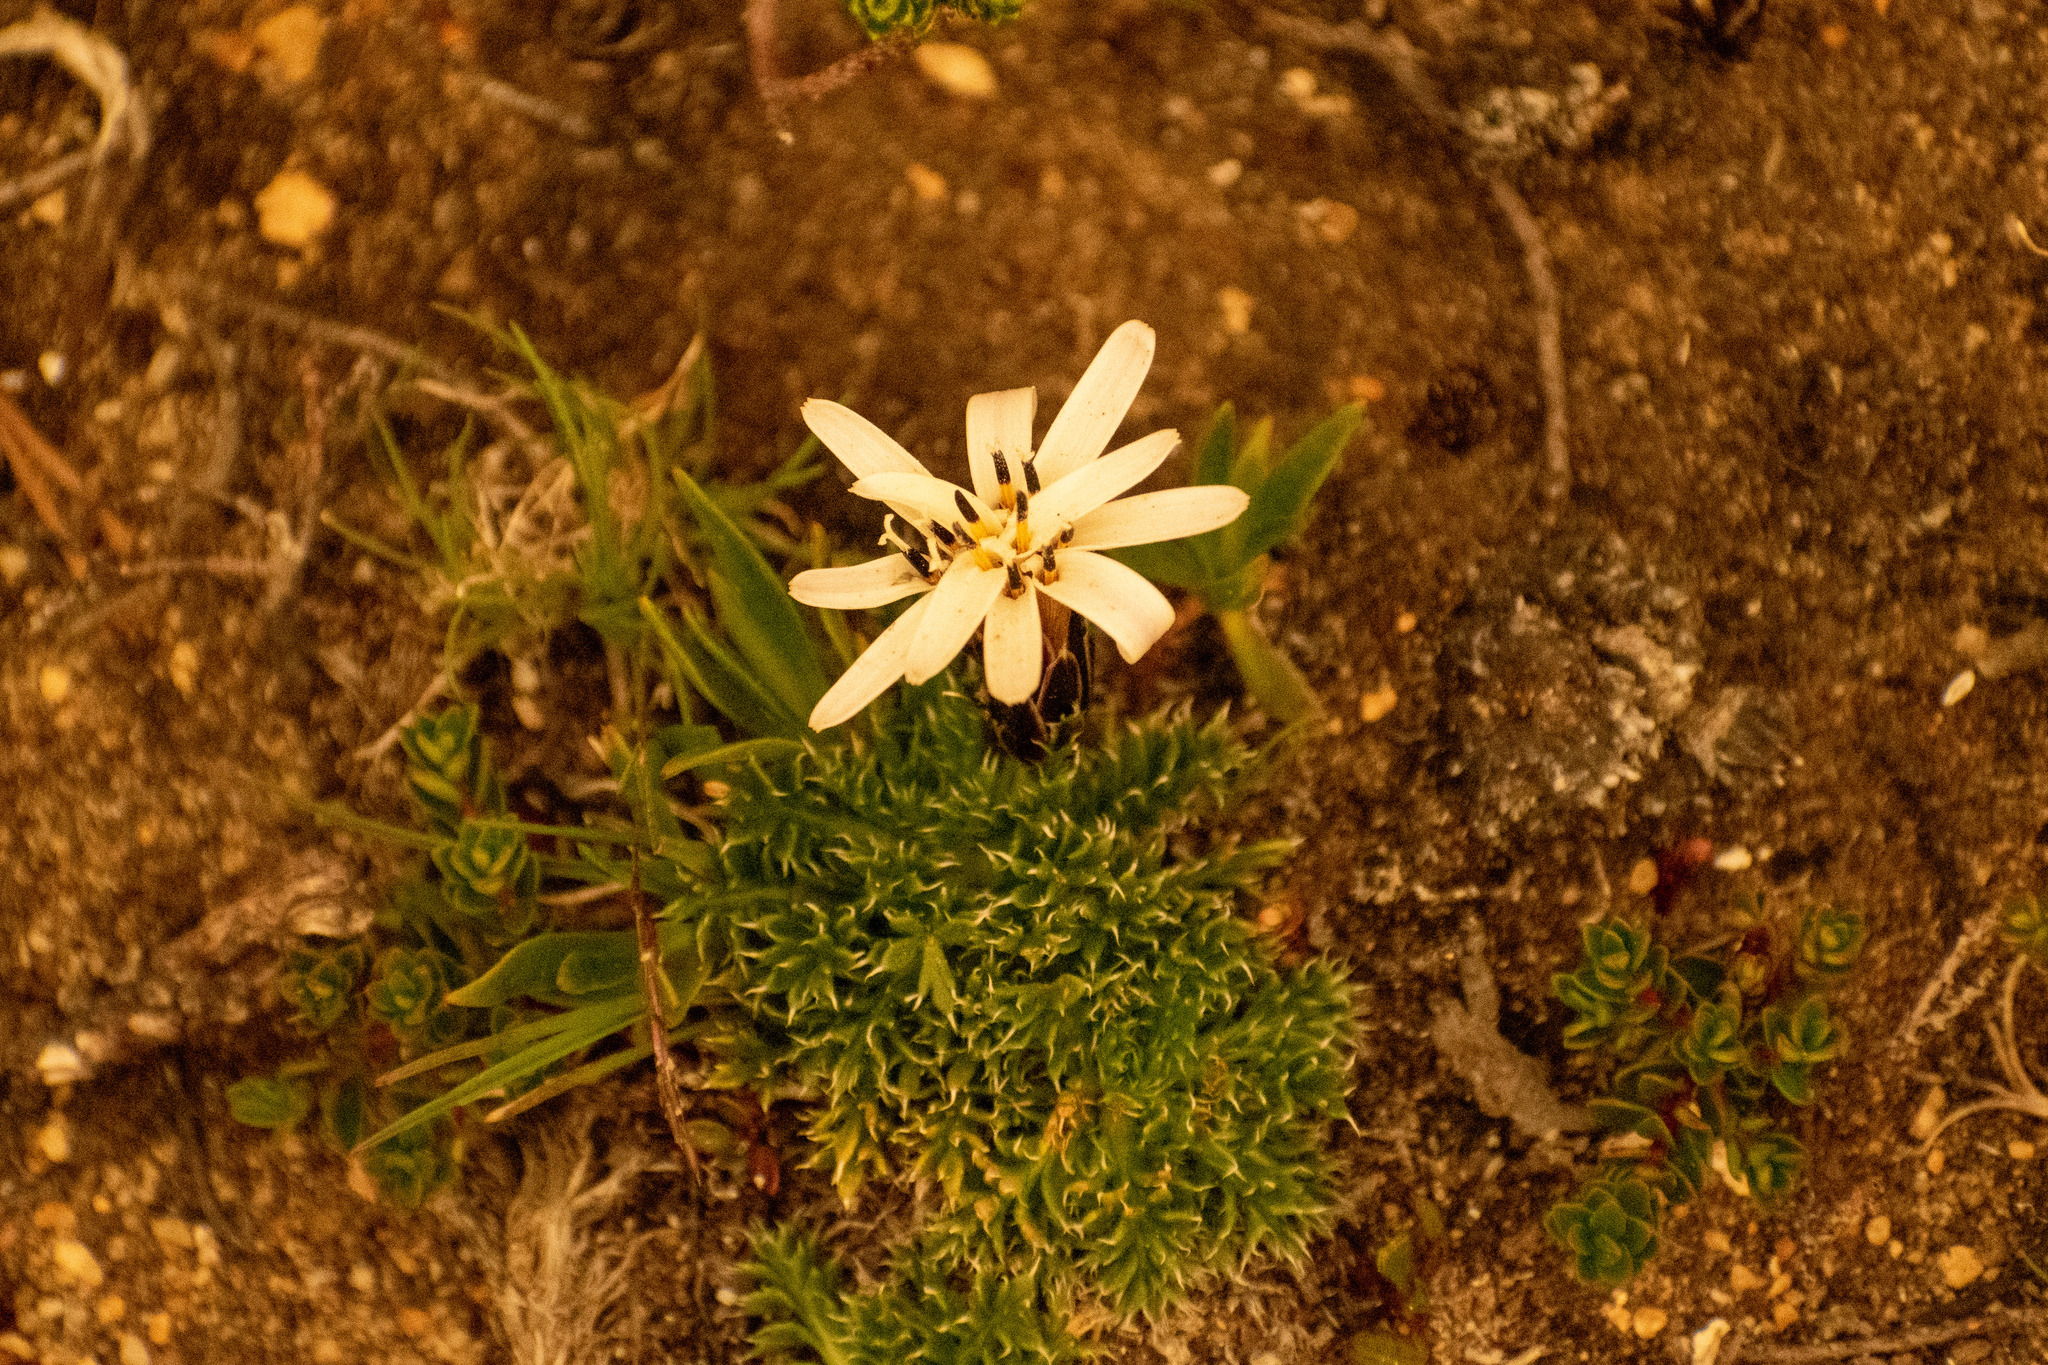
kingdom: Plantae
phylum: Tracheophyta
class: Magnoliopsida
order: Asterales
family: Asteraceae
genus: Perezia
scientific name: Perezia pilifera
